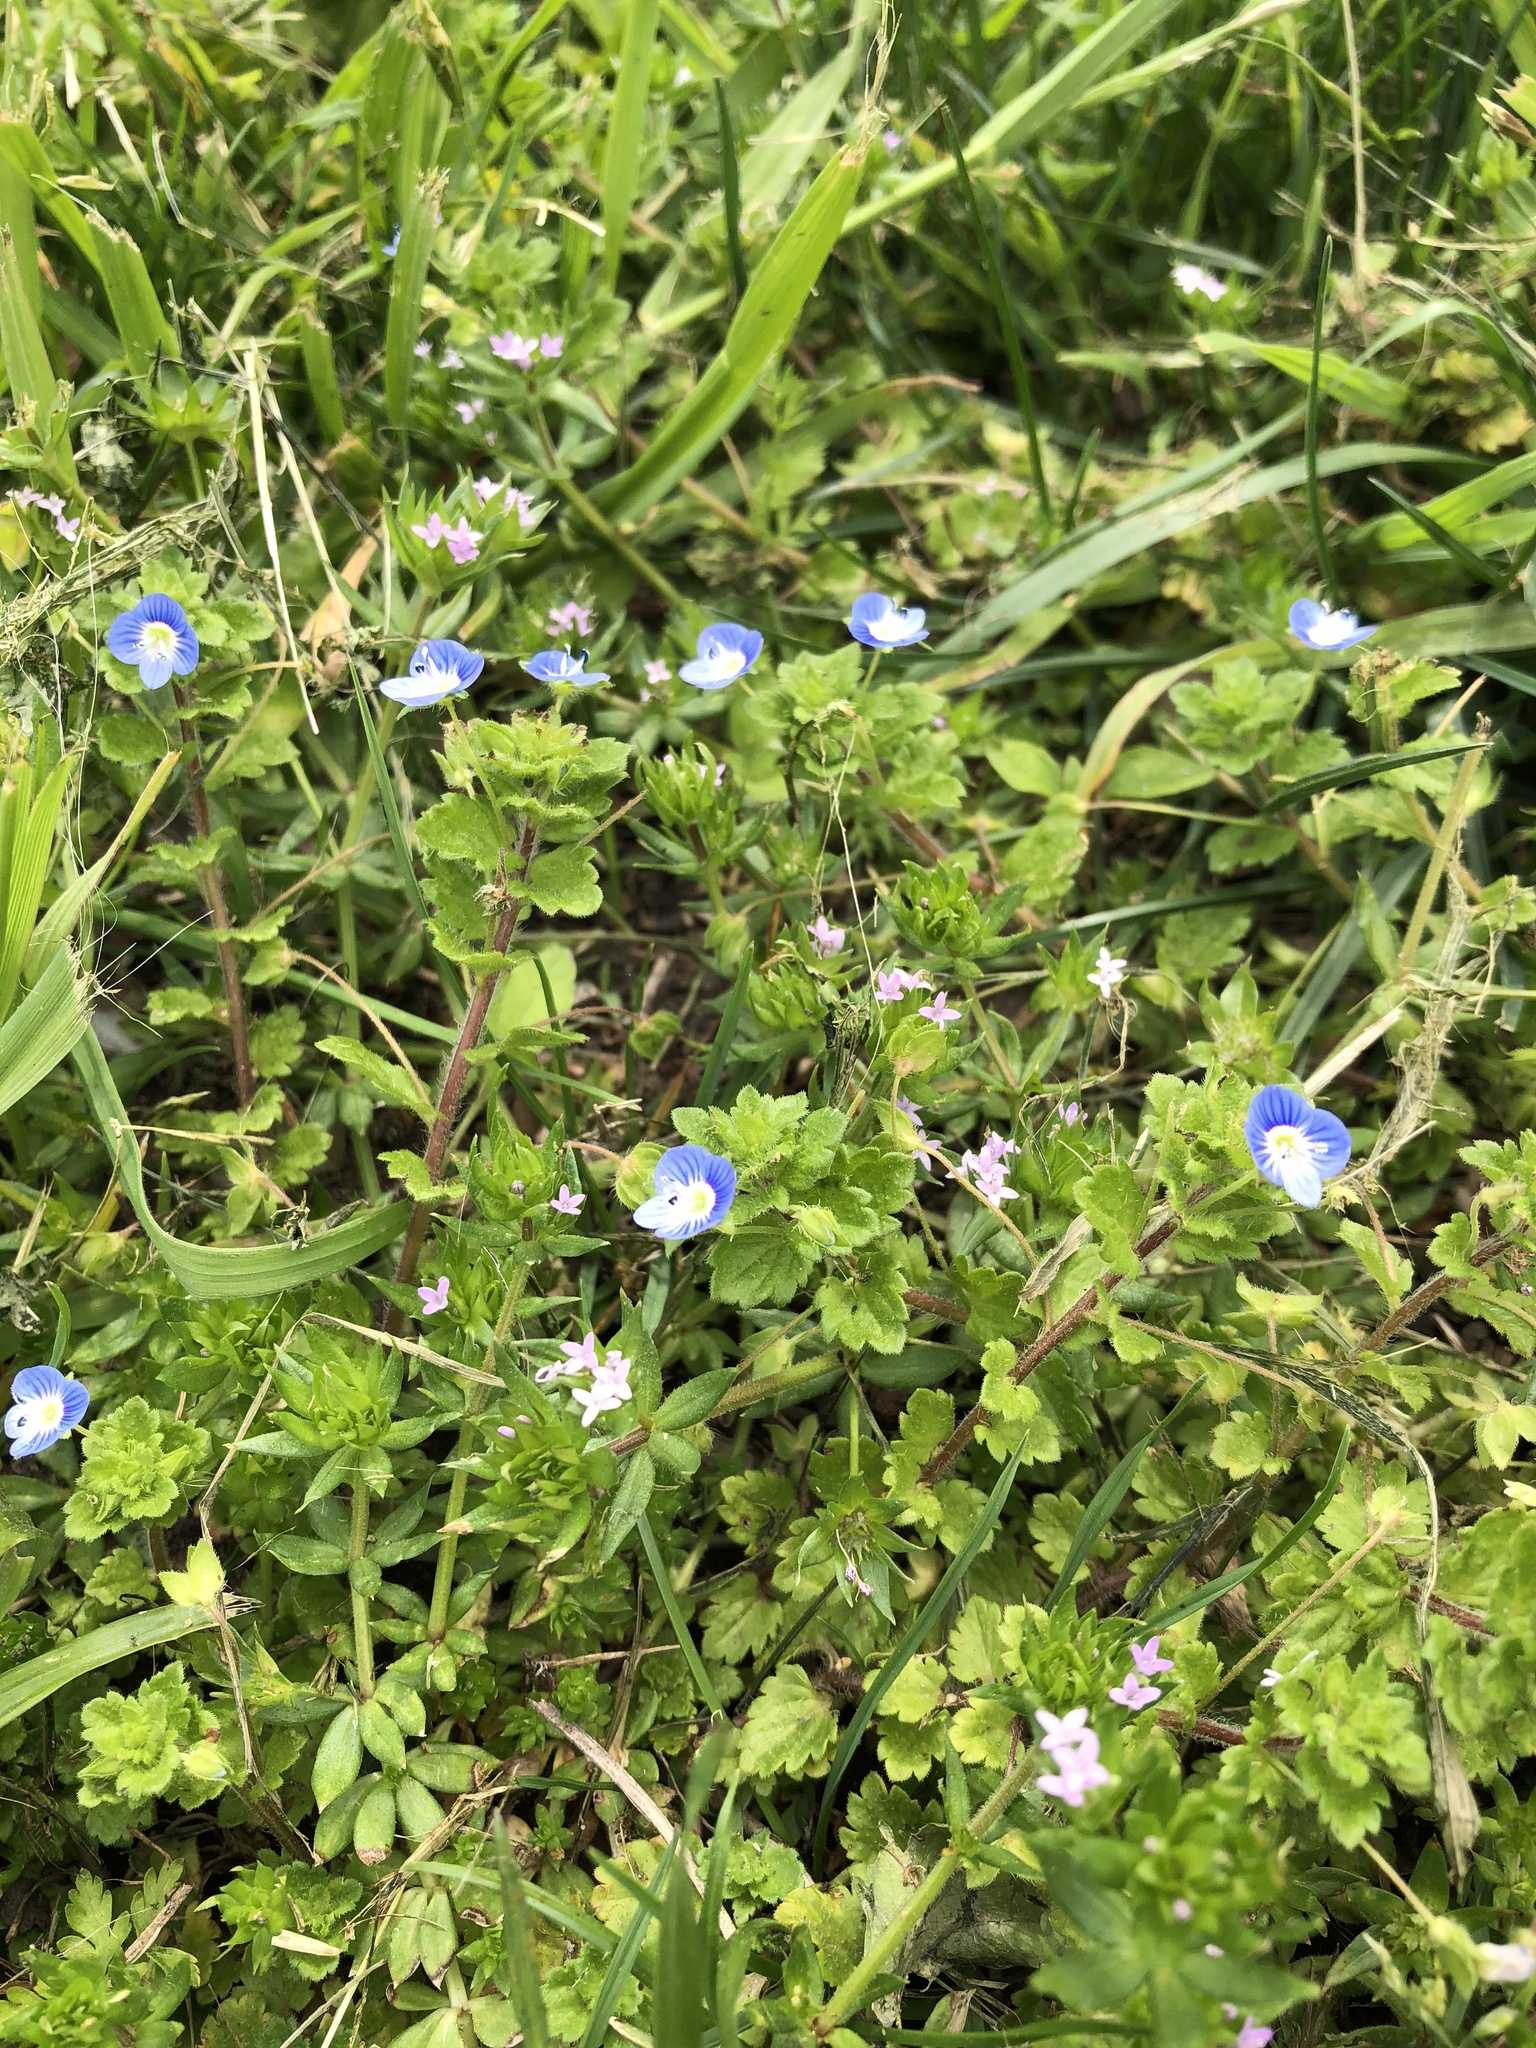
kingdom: Plantae
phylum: Tracheophyta
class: Magnoliopsida
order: Lamiales
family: Plantaginaceae
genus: Veronica
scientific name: Veronica persica
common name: Common field-speedwell
